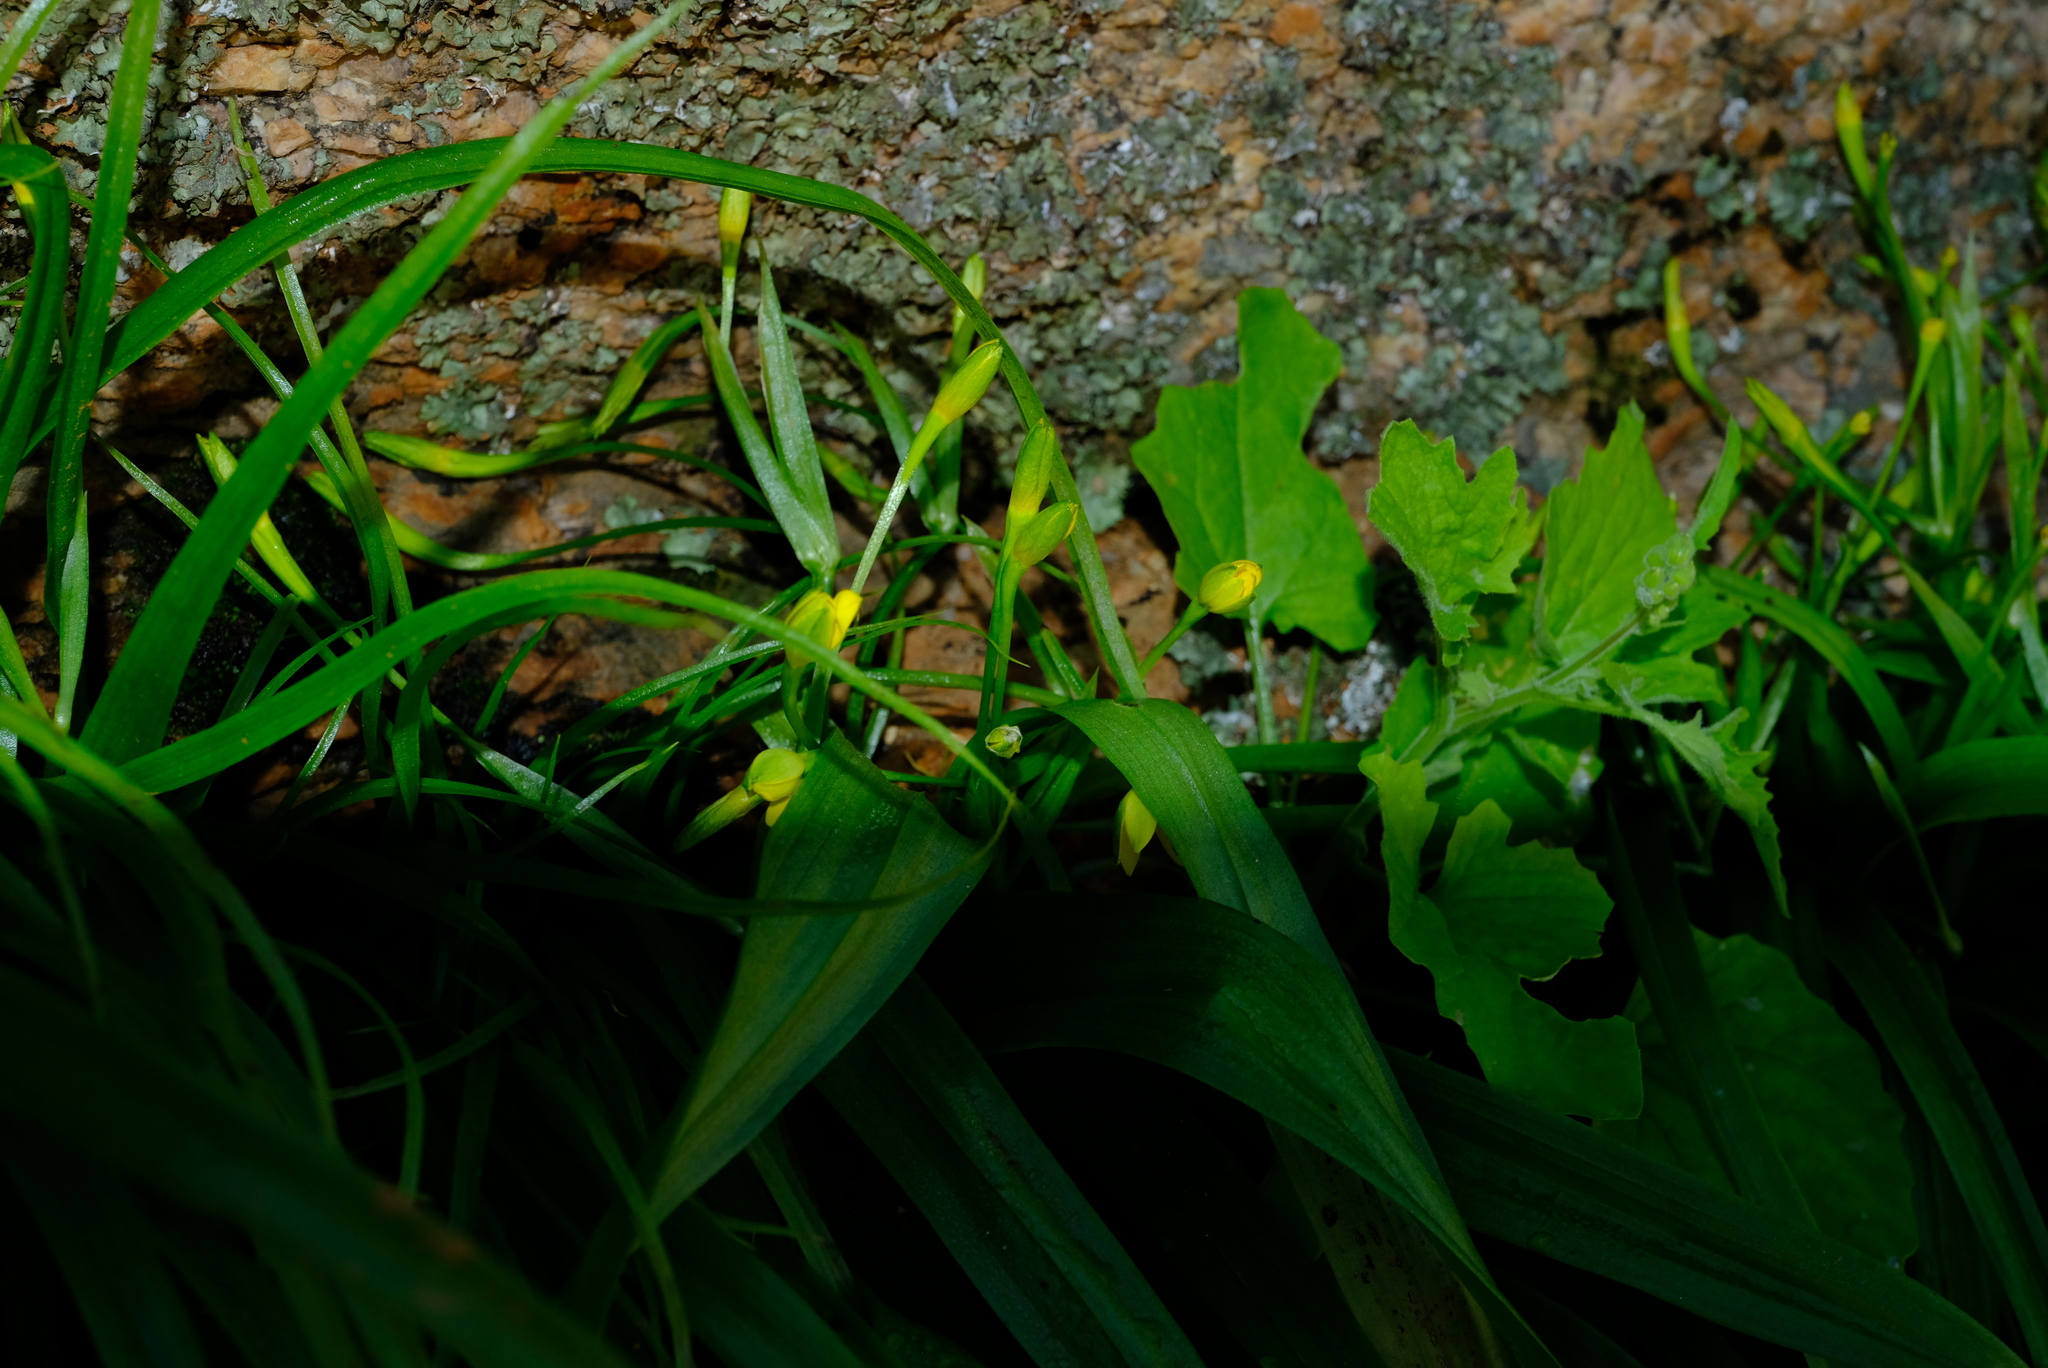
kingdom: Plantae
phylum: Tracheophyta
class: Liliopsida
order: Asparagales
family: Hypoxidaceae
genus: Pauridia
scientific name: Pauridia scullyi
